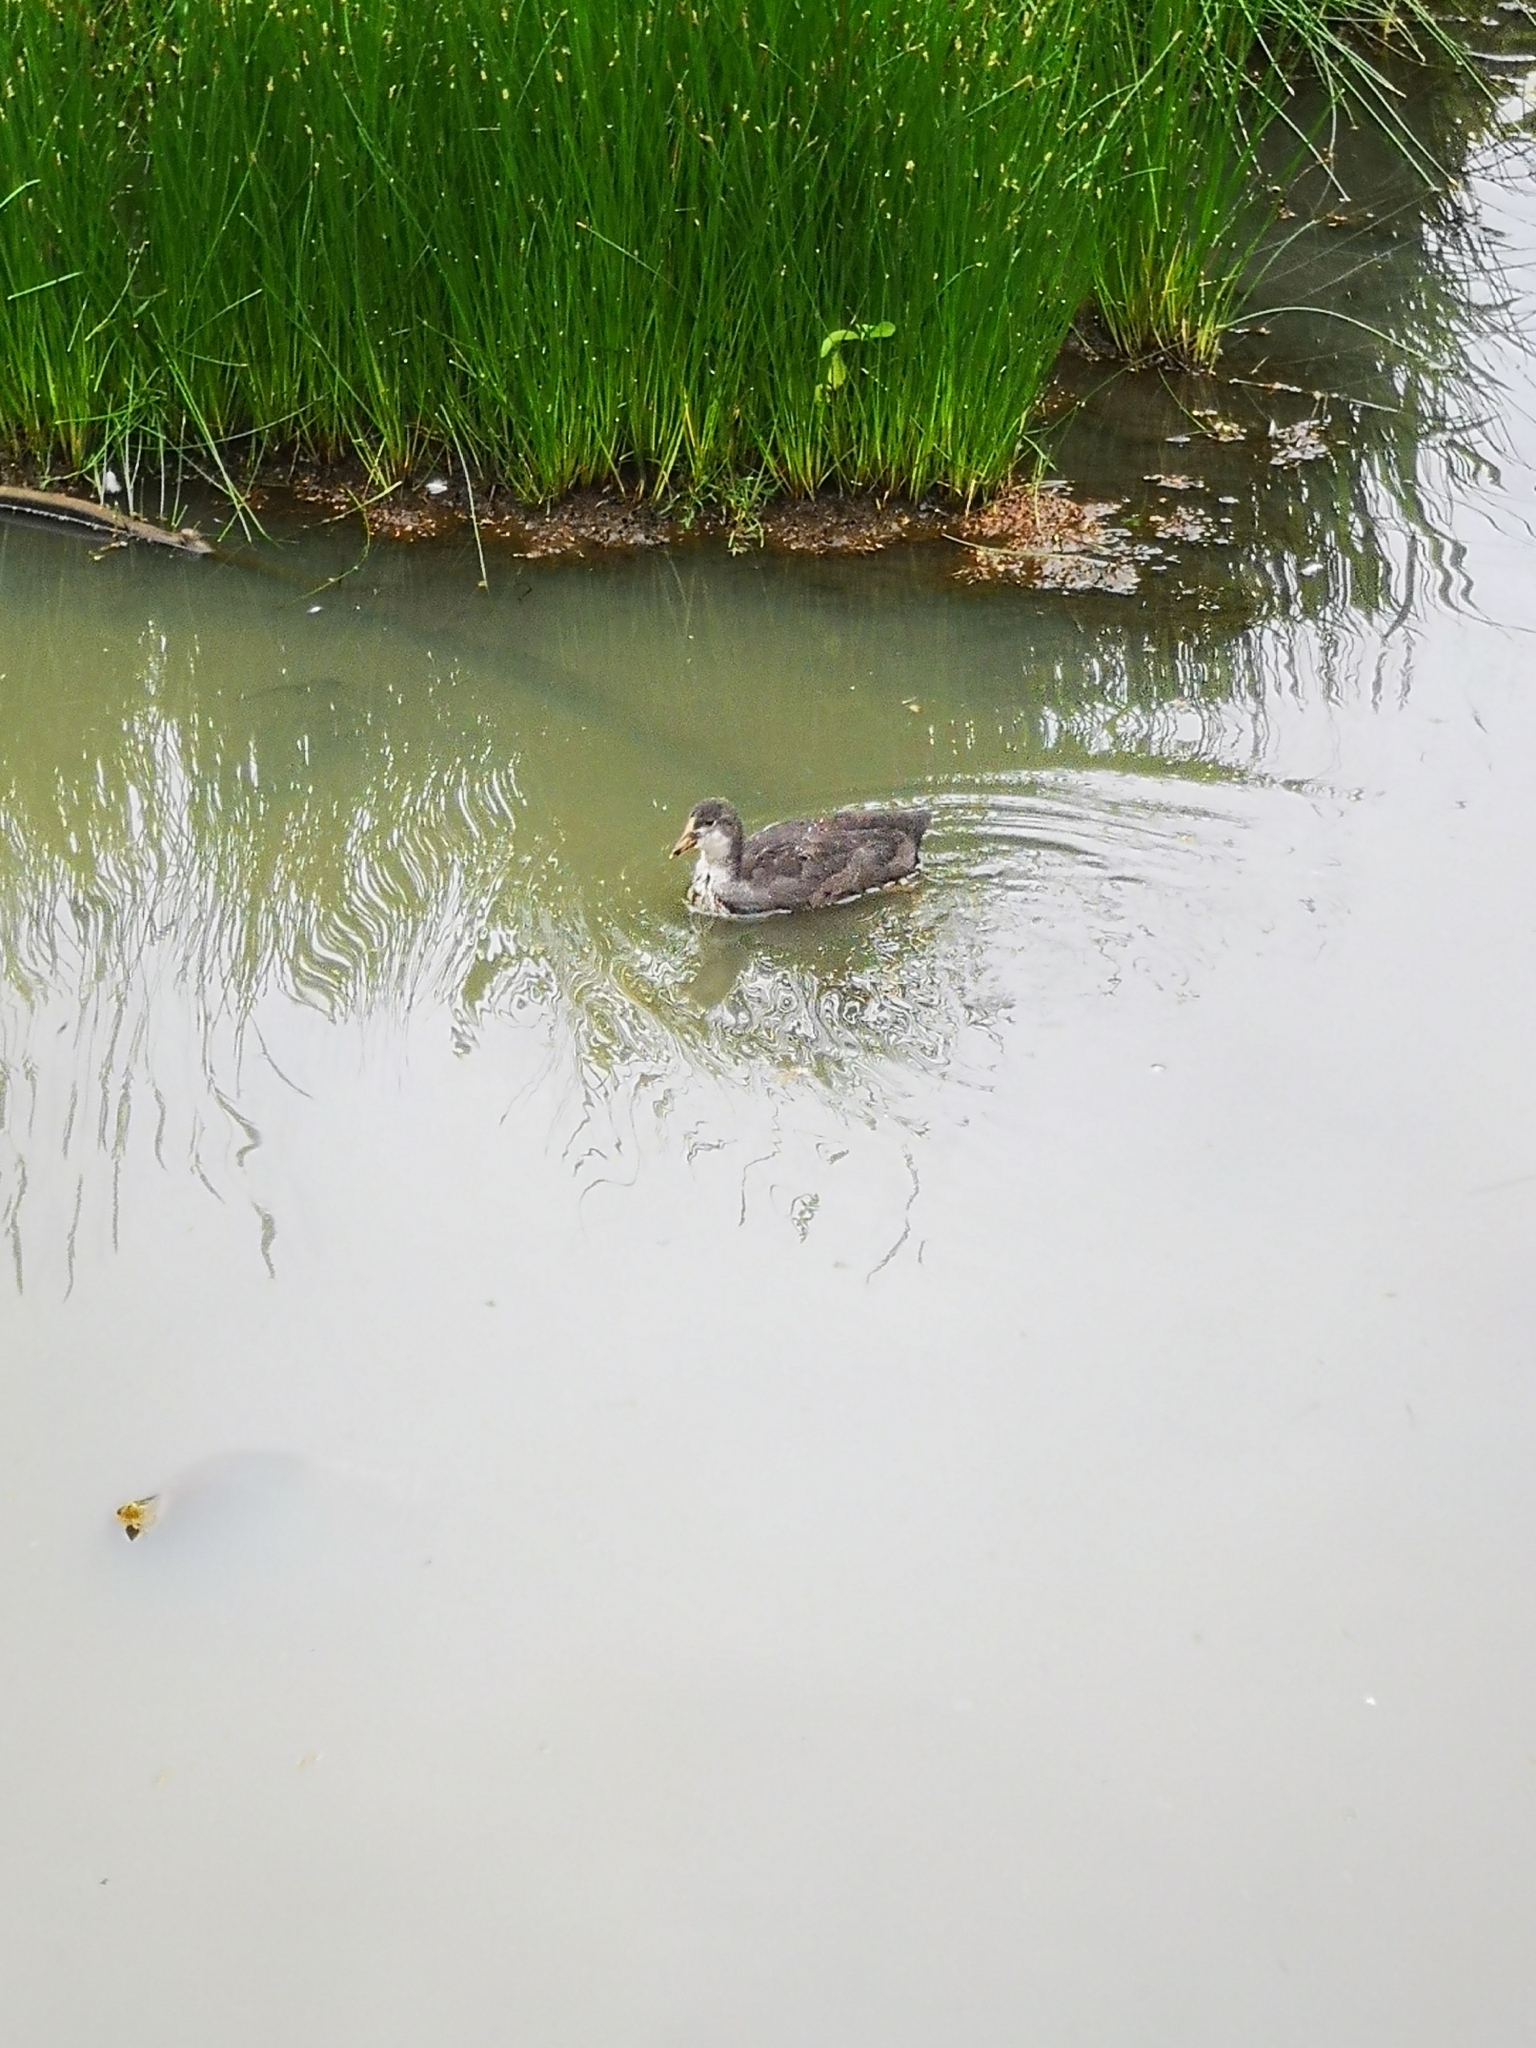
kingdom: Animalia
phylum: Chordata
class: Aves
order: Gruiformes
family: Rallidae
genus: Fulica
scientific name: Fulica atra
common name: Eurasian coot
